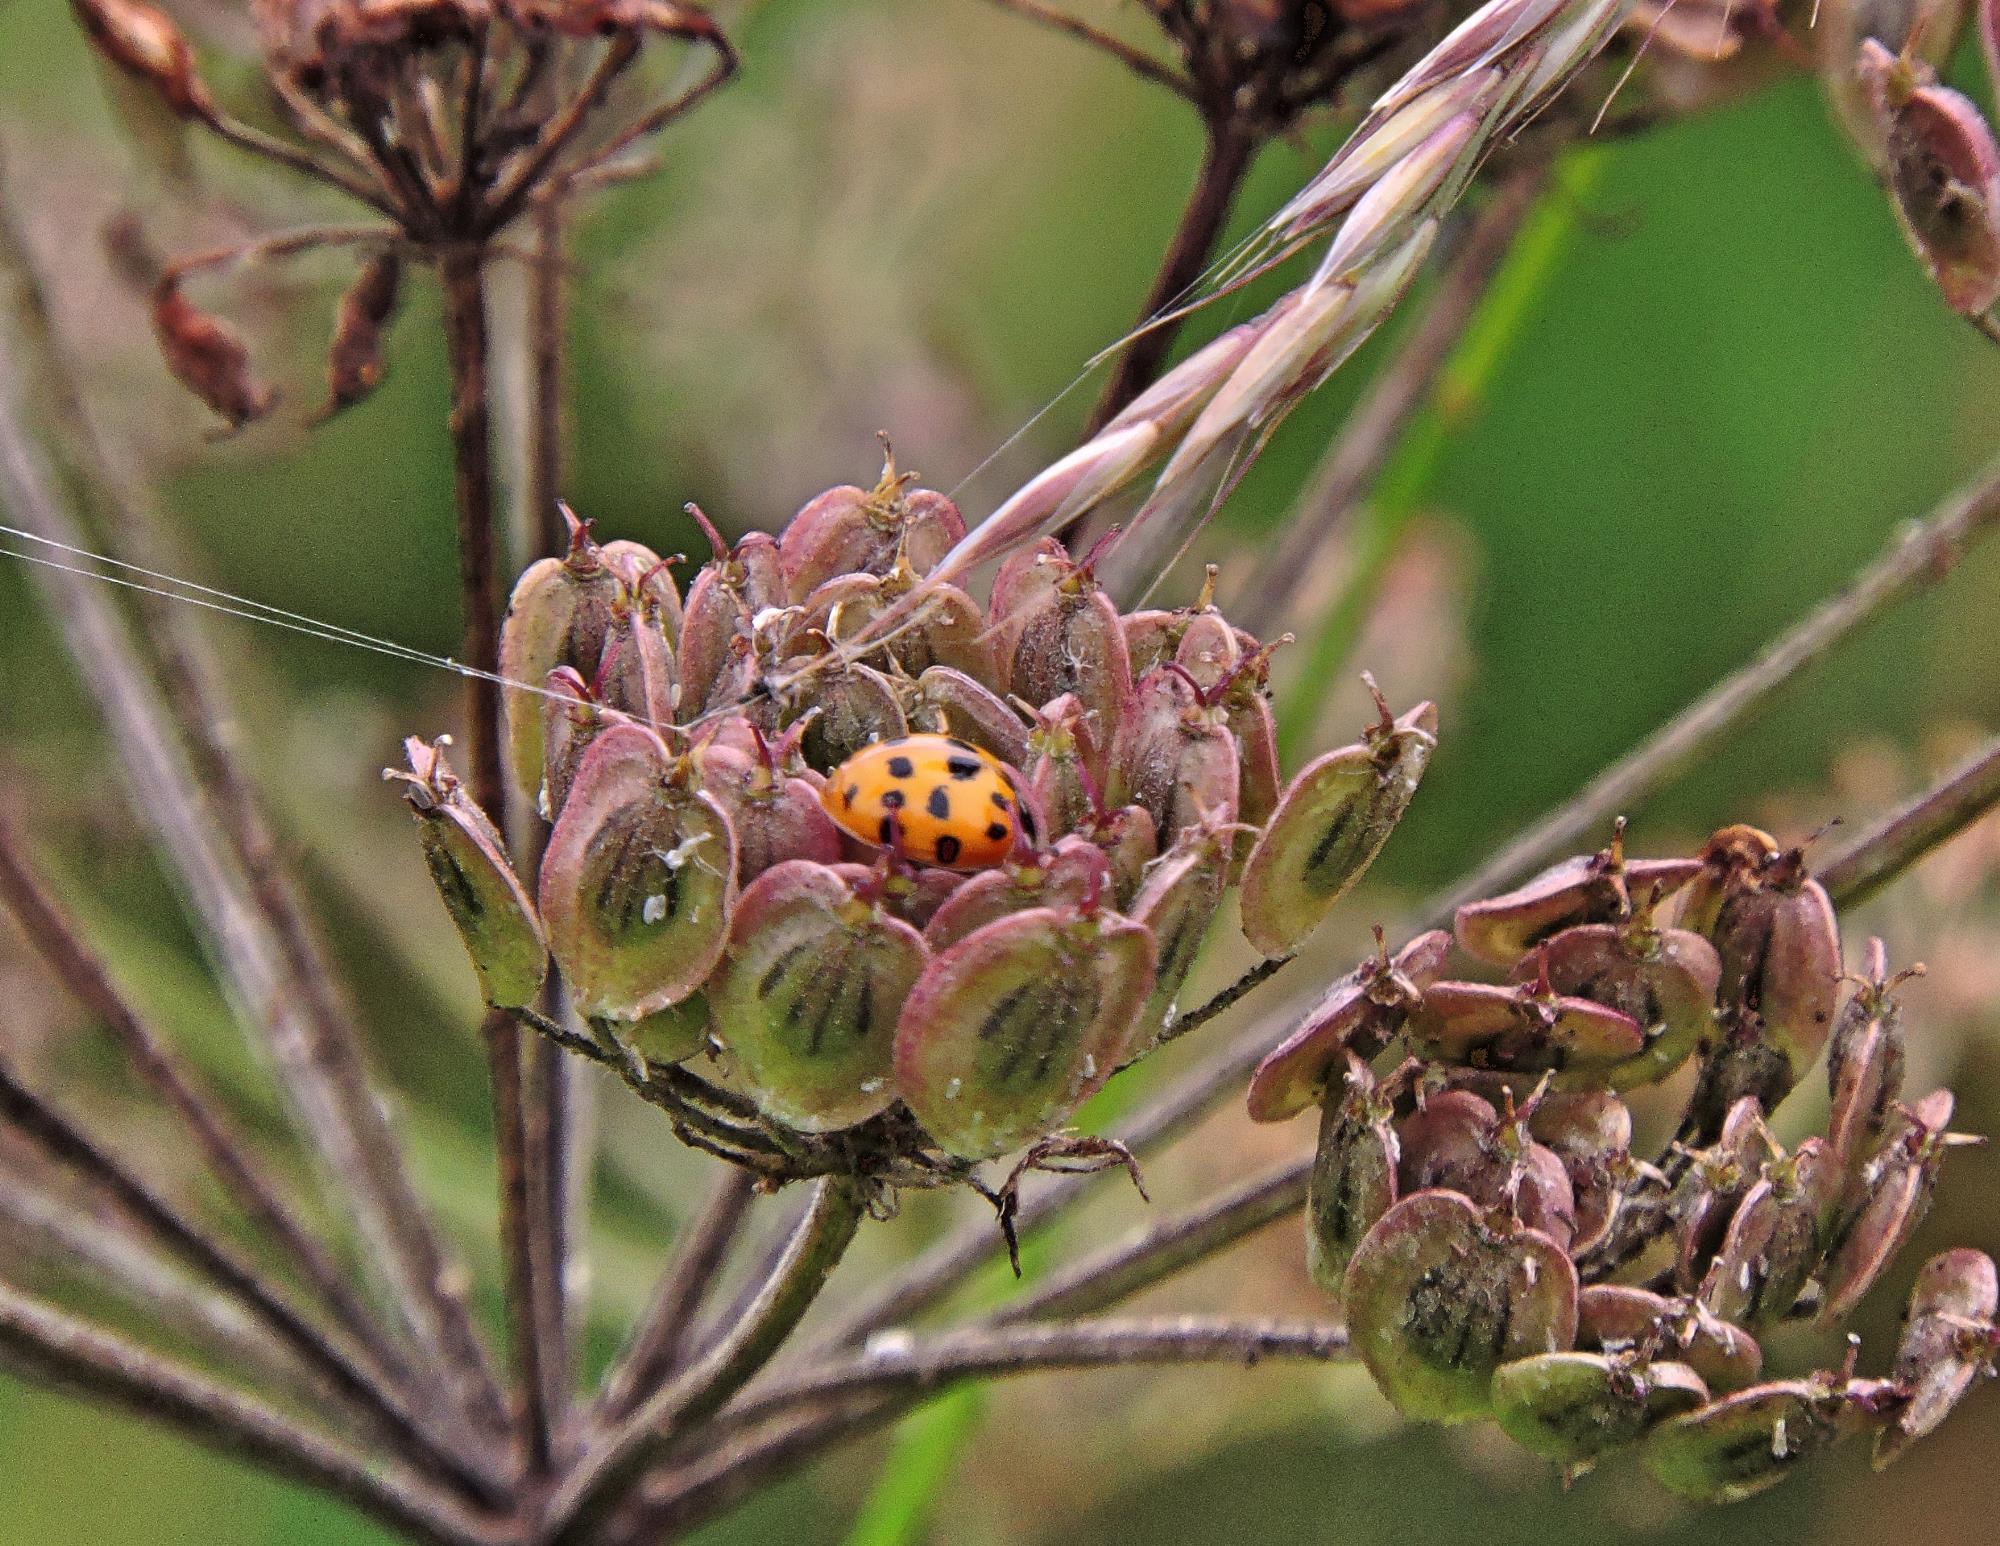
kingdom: Animalia
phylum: Arthropoda
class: Insecta
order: Coleoptera
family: Coccinellidae
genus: Harmonia
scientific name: Harmonia axyridis
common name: Harlequin ladybird
